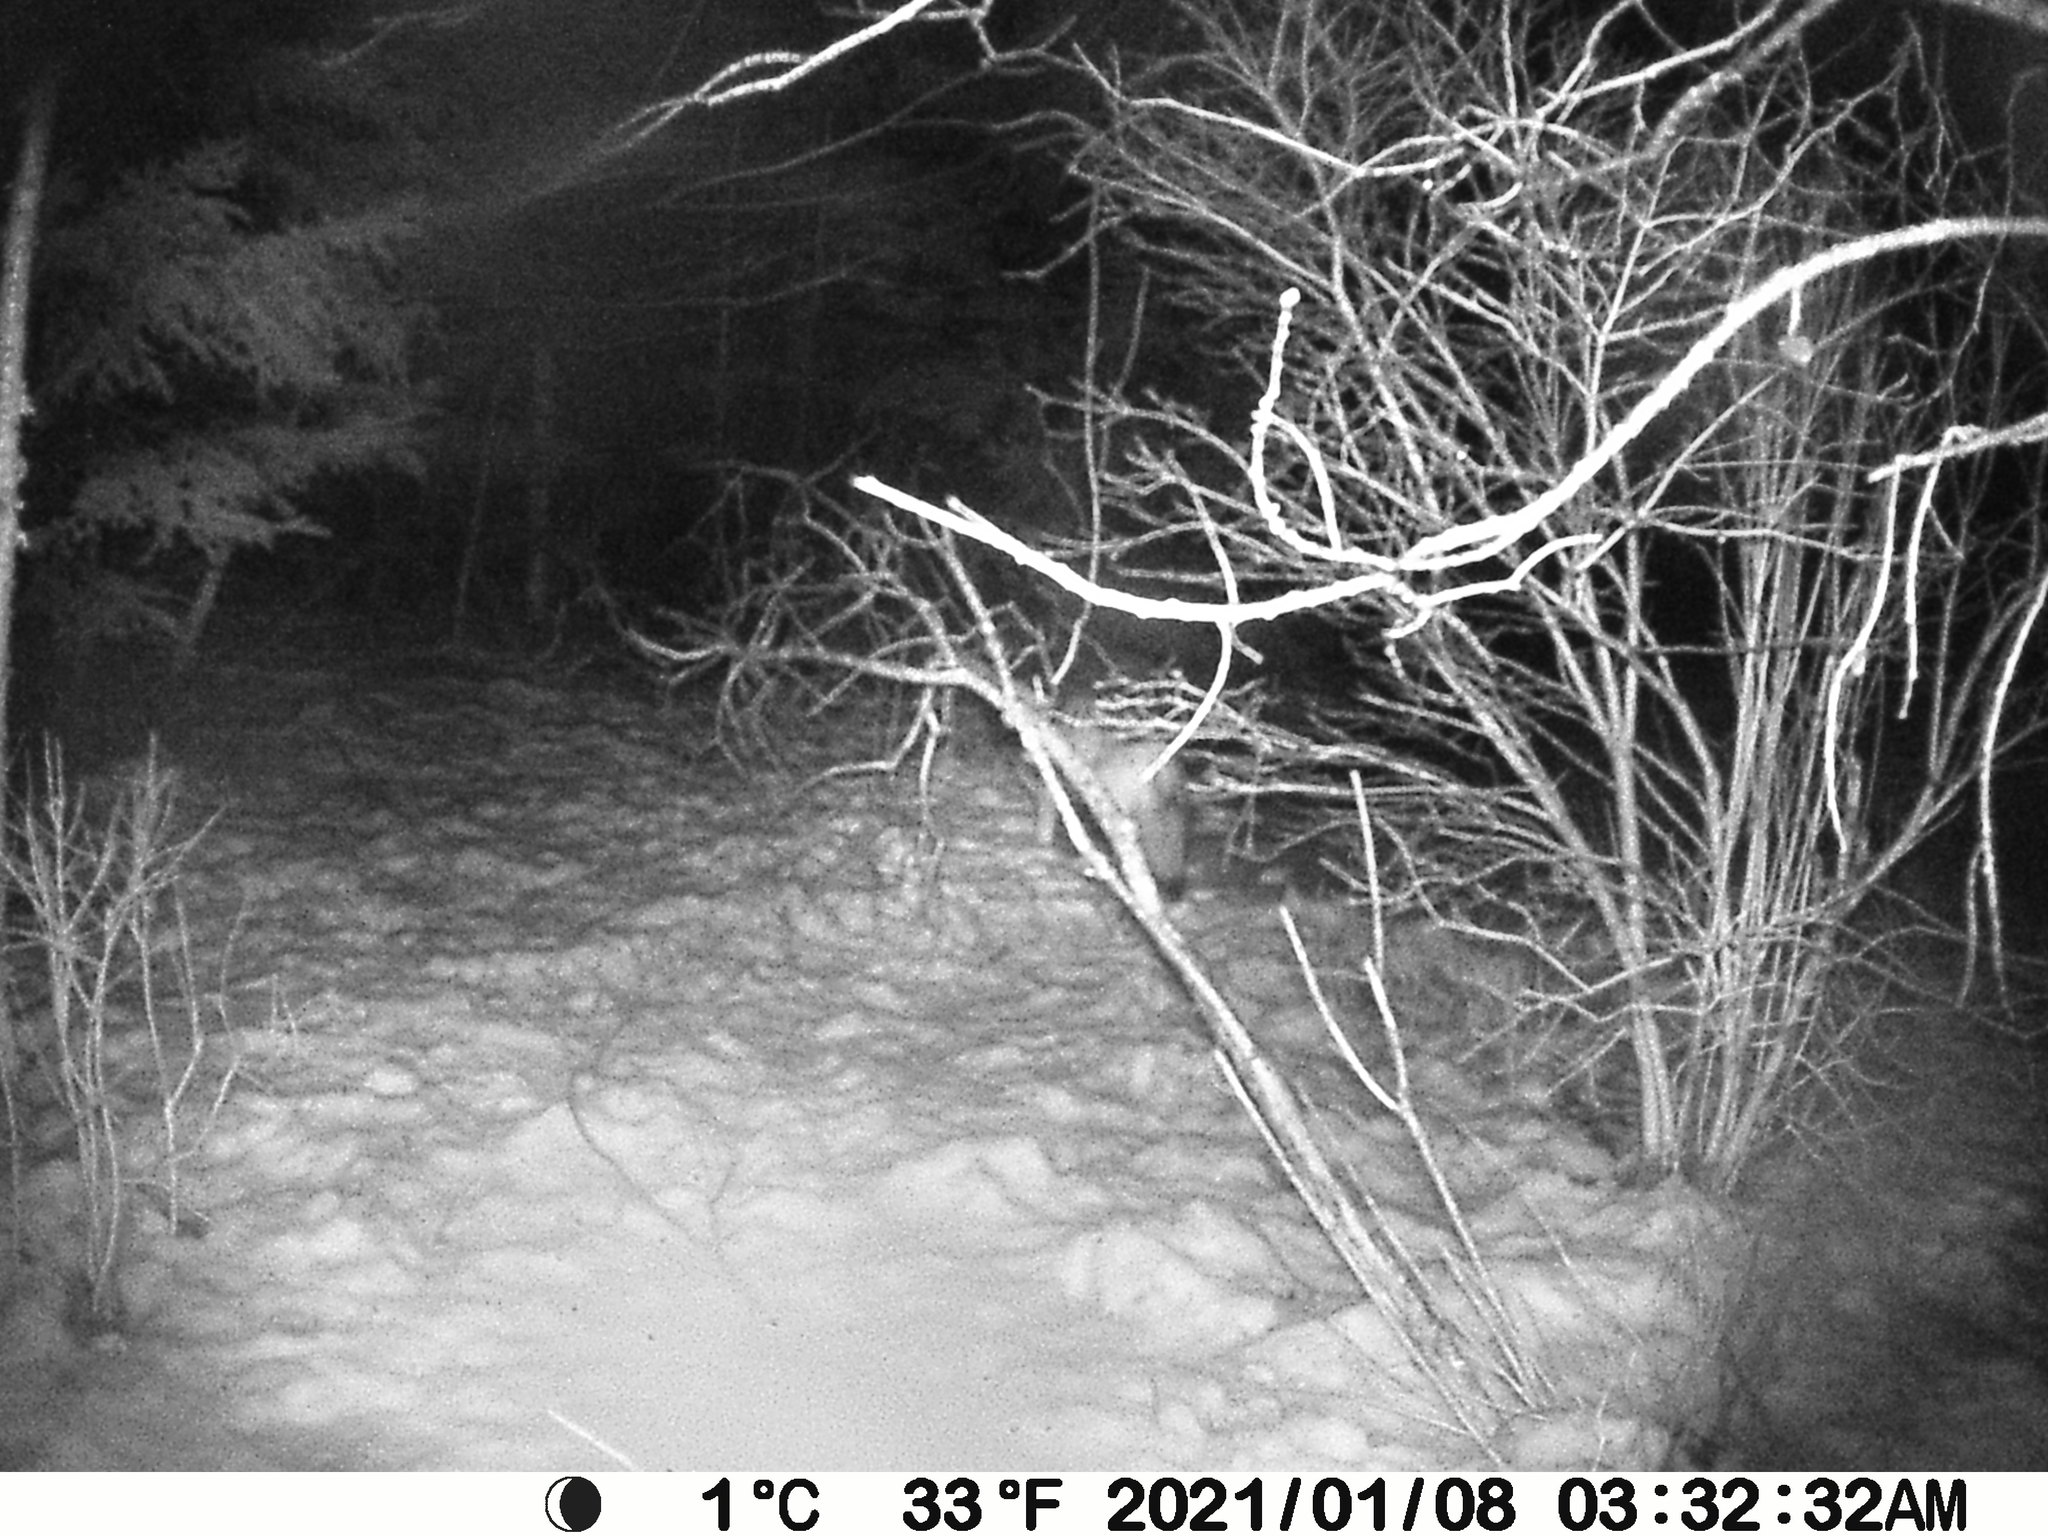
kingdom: Animalia
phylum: Chordata
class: Mammalia
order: Carnivora
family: Canidae
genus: Canis
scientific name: Canis latrans
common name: Coyote
